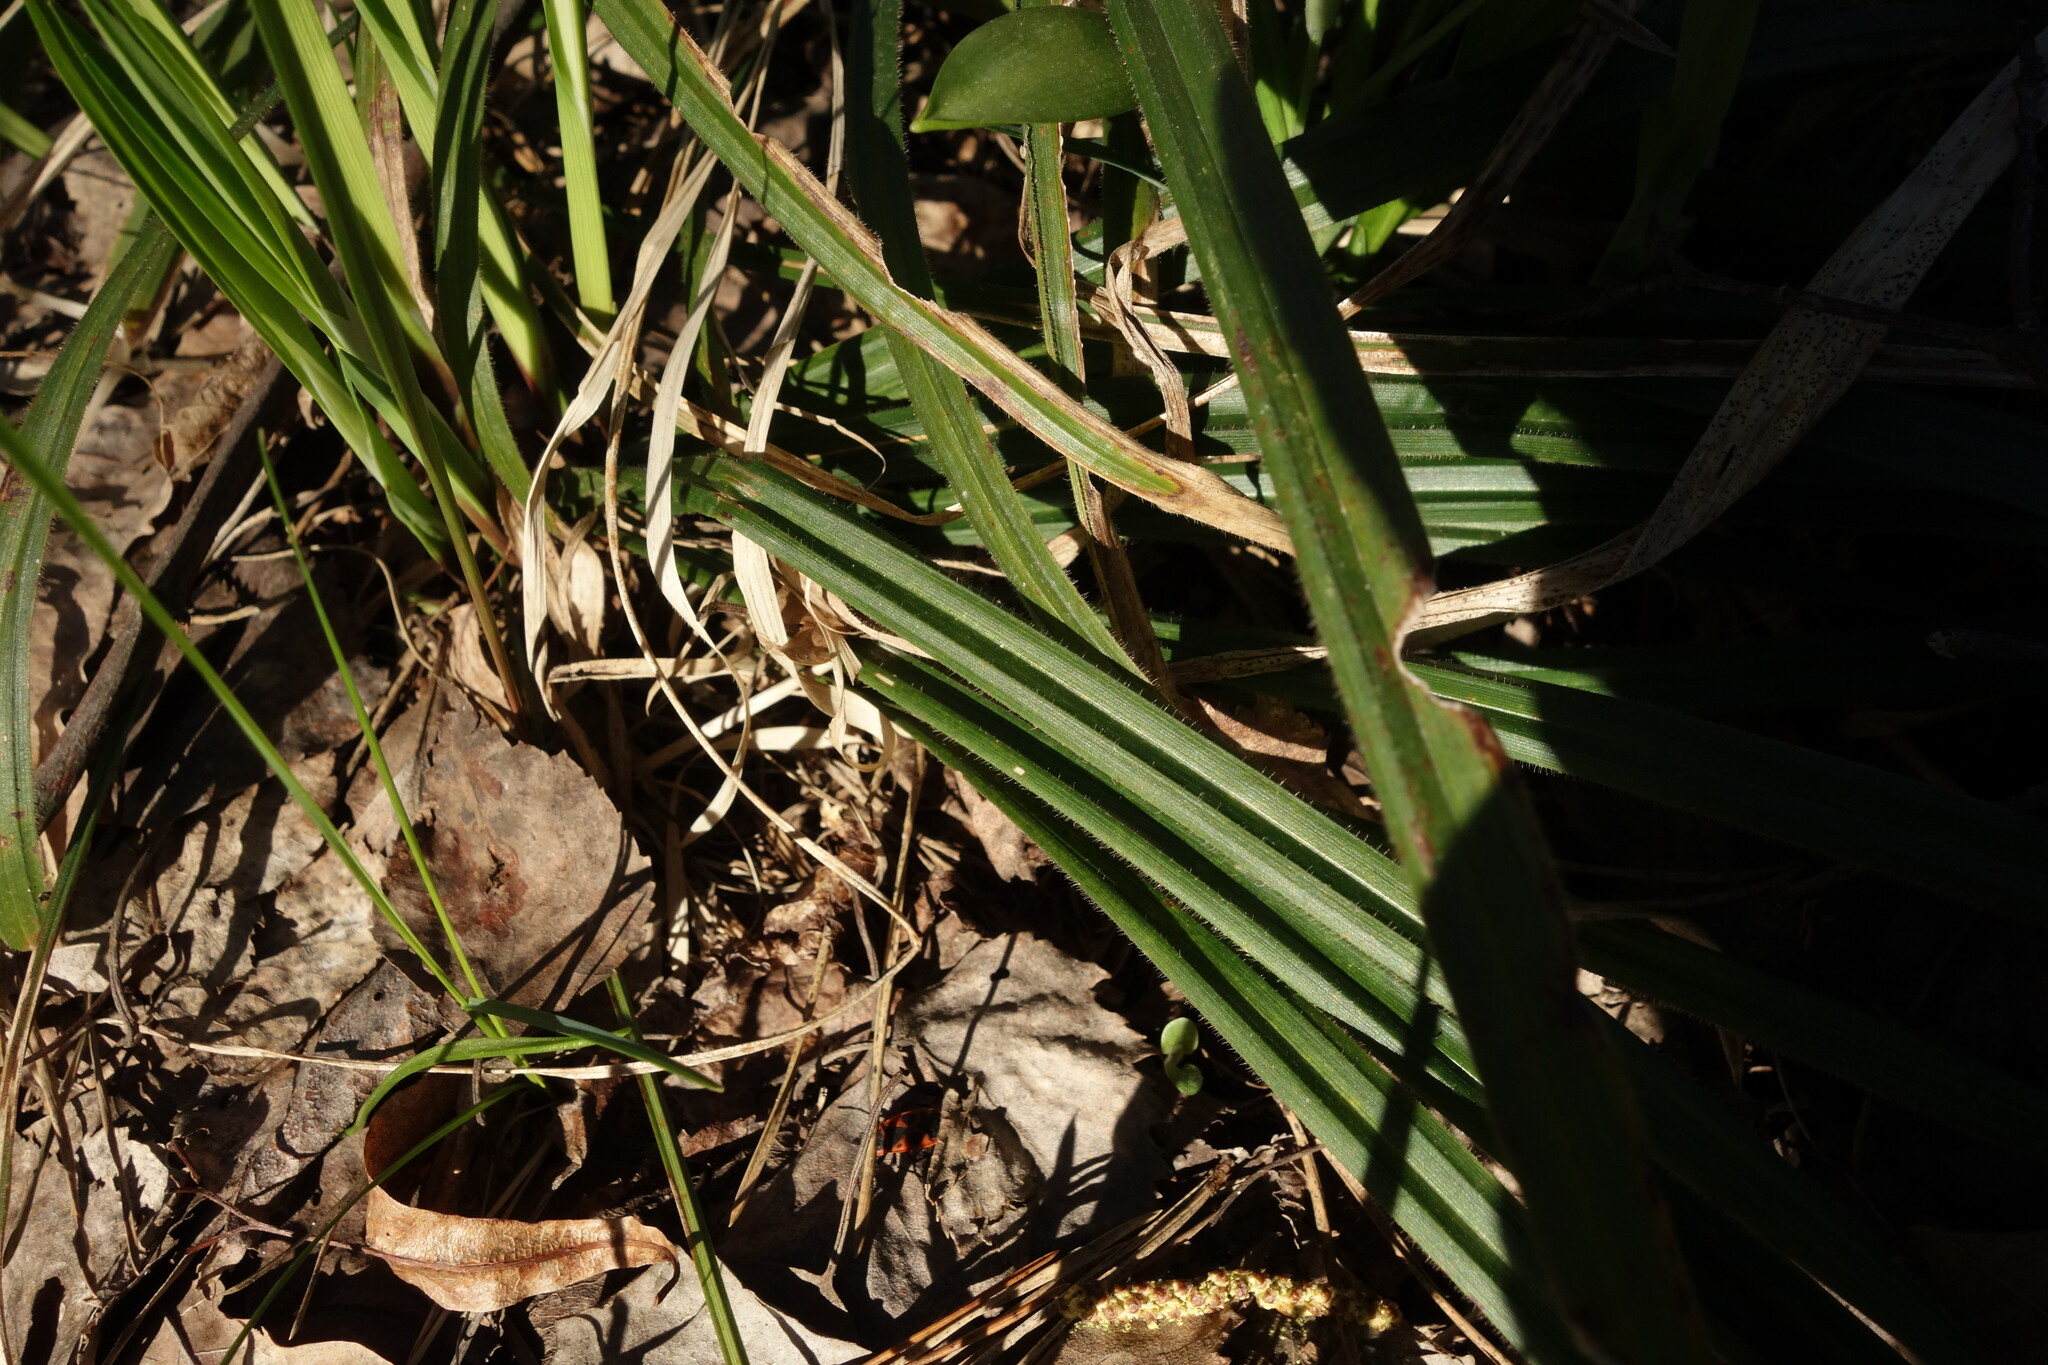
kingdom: Plantae
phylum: Tracheophyta
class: Liliopsida
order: Poales
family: Cyperaceae
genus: Carex
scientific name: Carex pilosa
